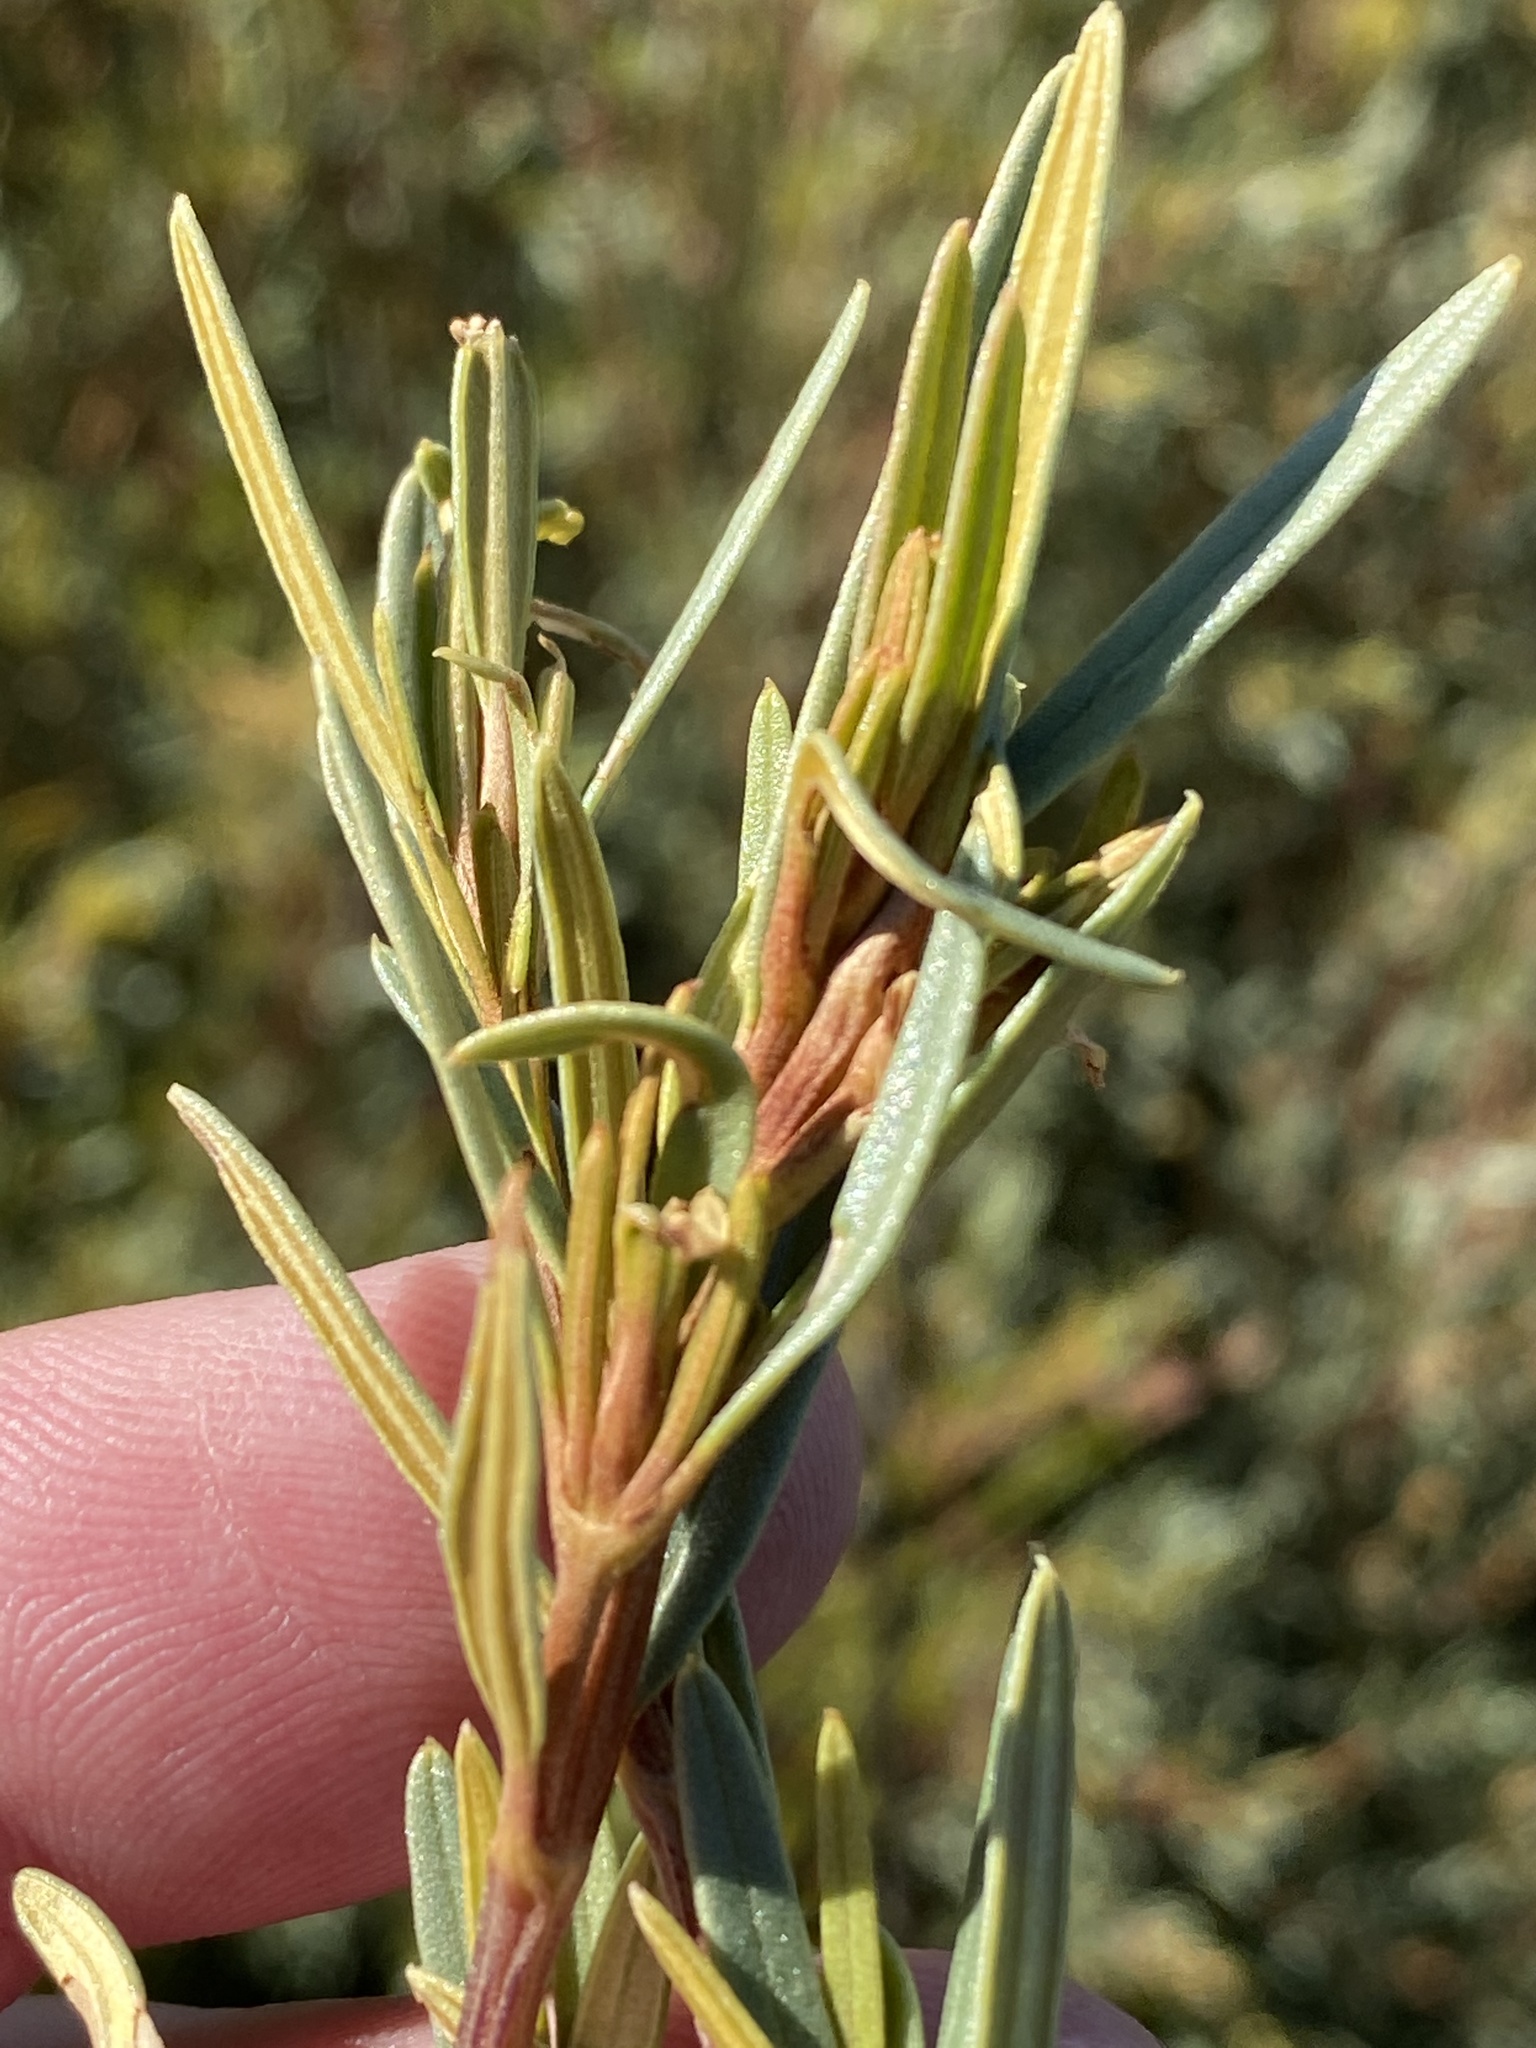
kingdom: Plantae
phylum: Tracheophyta
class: Magnoliopsida
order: Cornales
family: Grubbiaceae
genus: Grubbia
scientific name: Grubbia tomentosa
